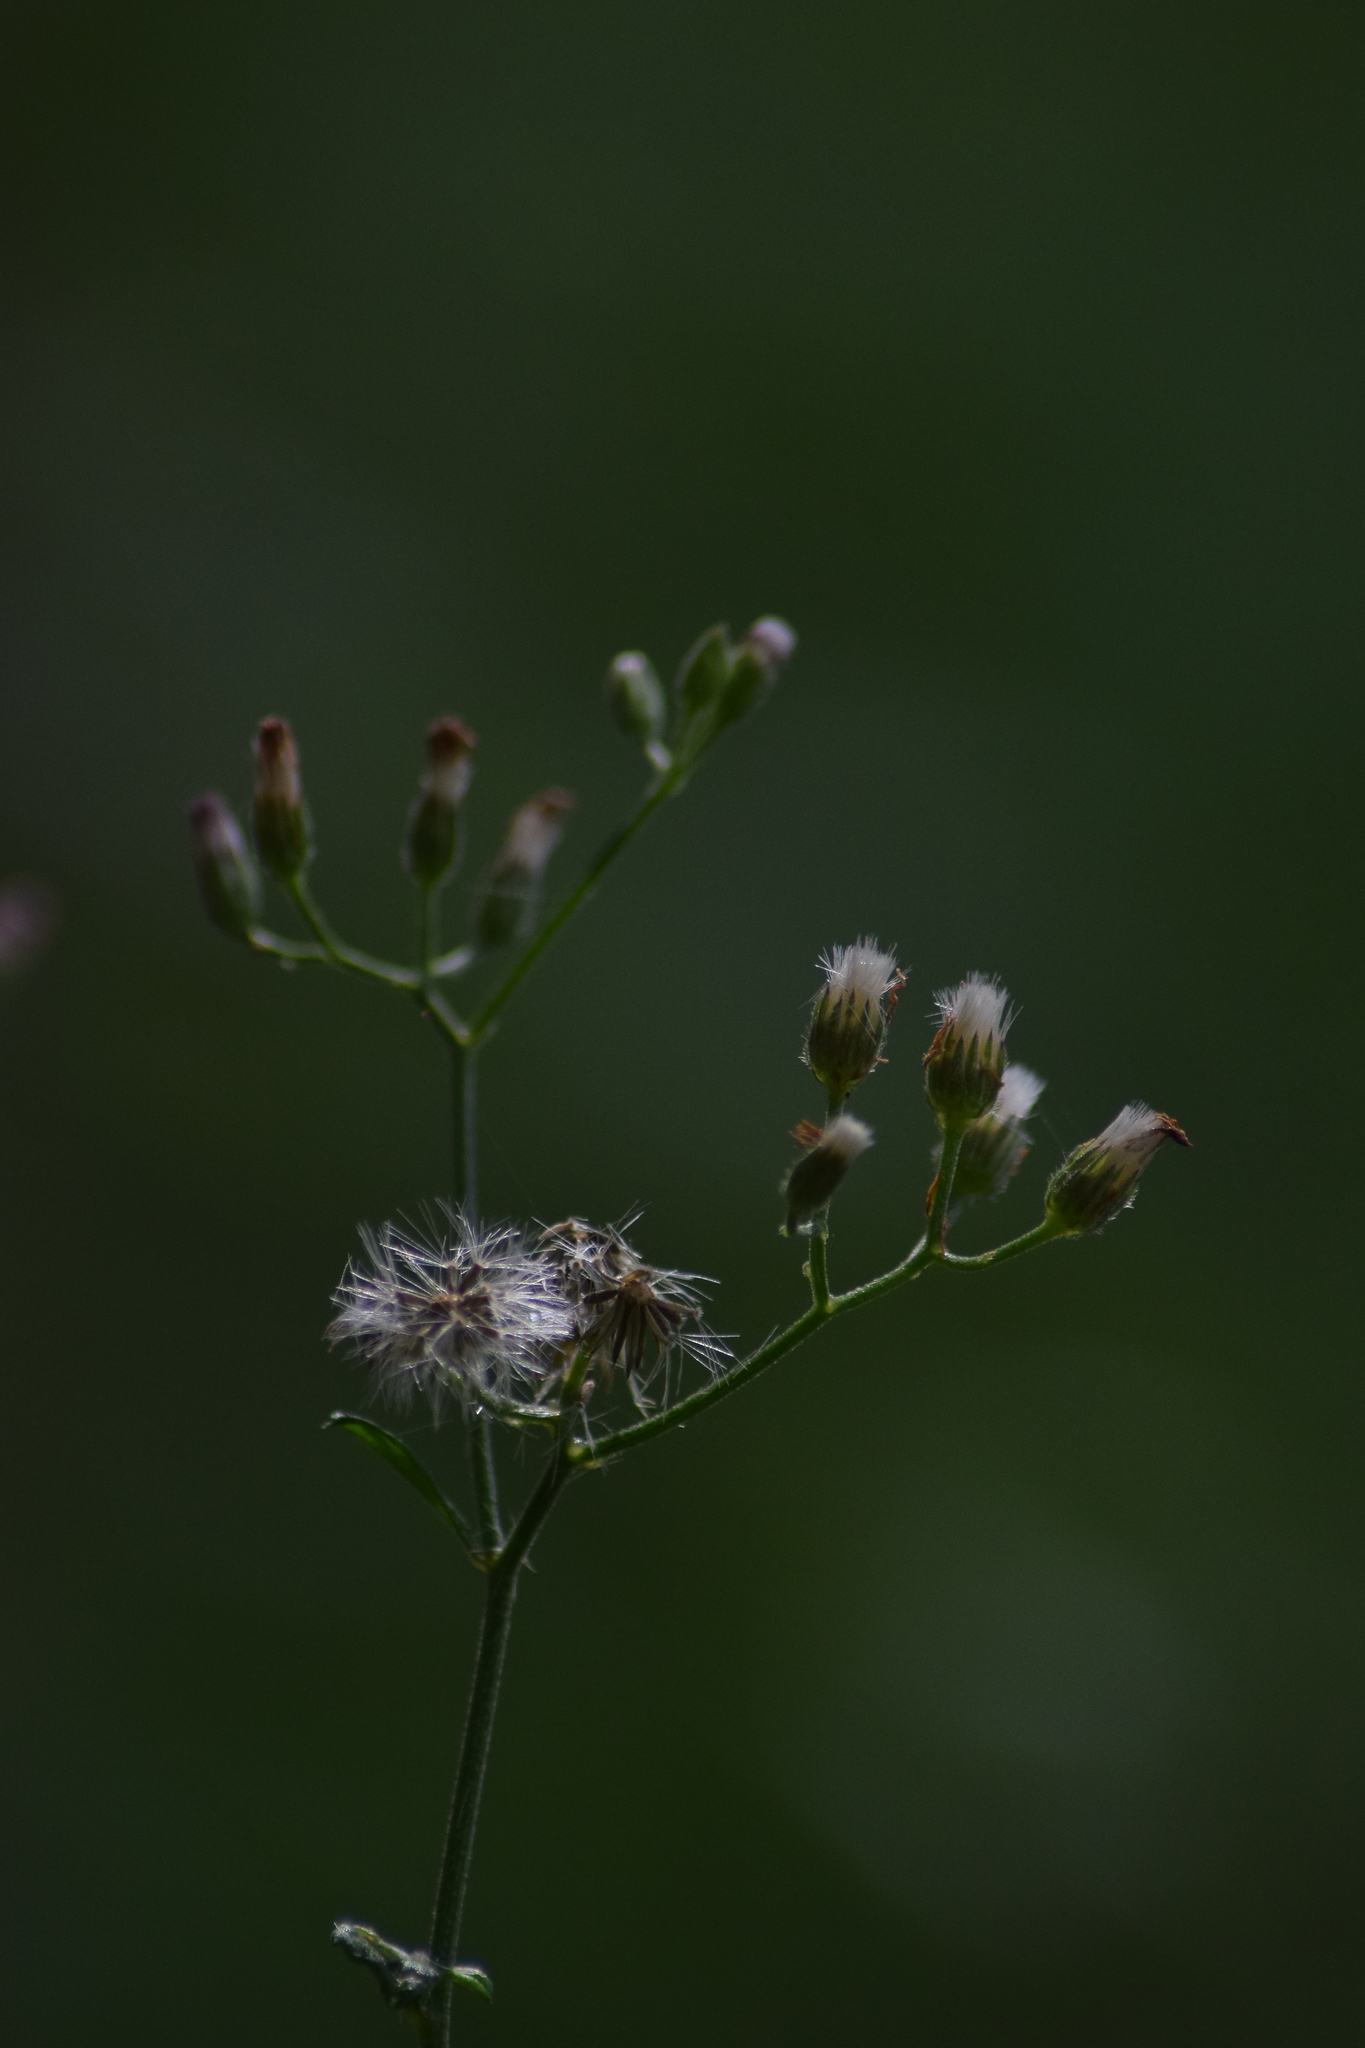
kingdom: Plantae
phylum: Tracheophyta
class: Magnoliopsida
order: Asterales
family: Asteraceae
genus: Cyanthillium
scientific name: Cyanthillium cinereum
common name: Little ironweed
